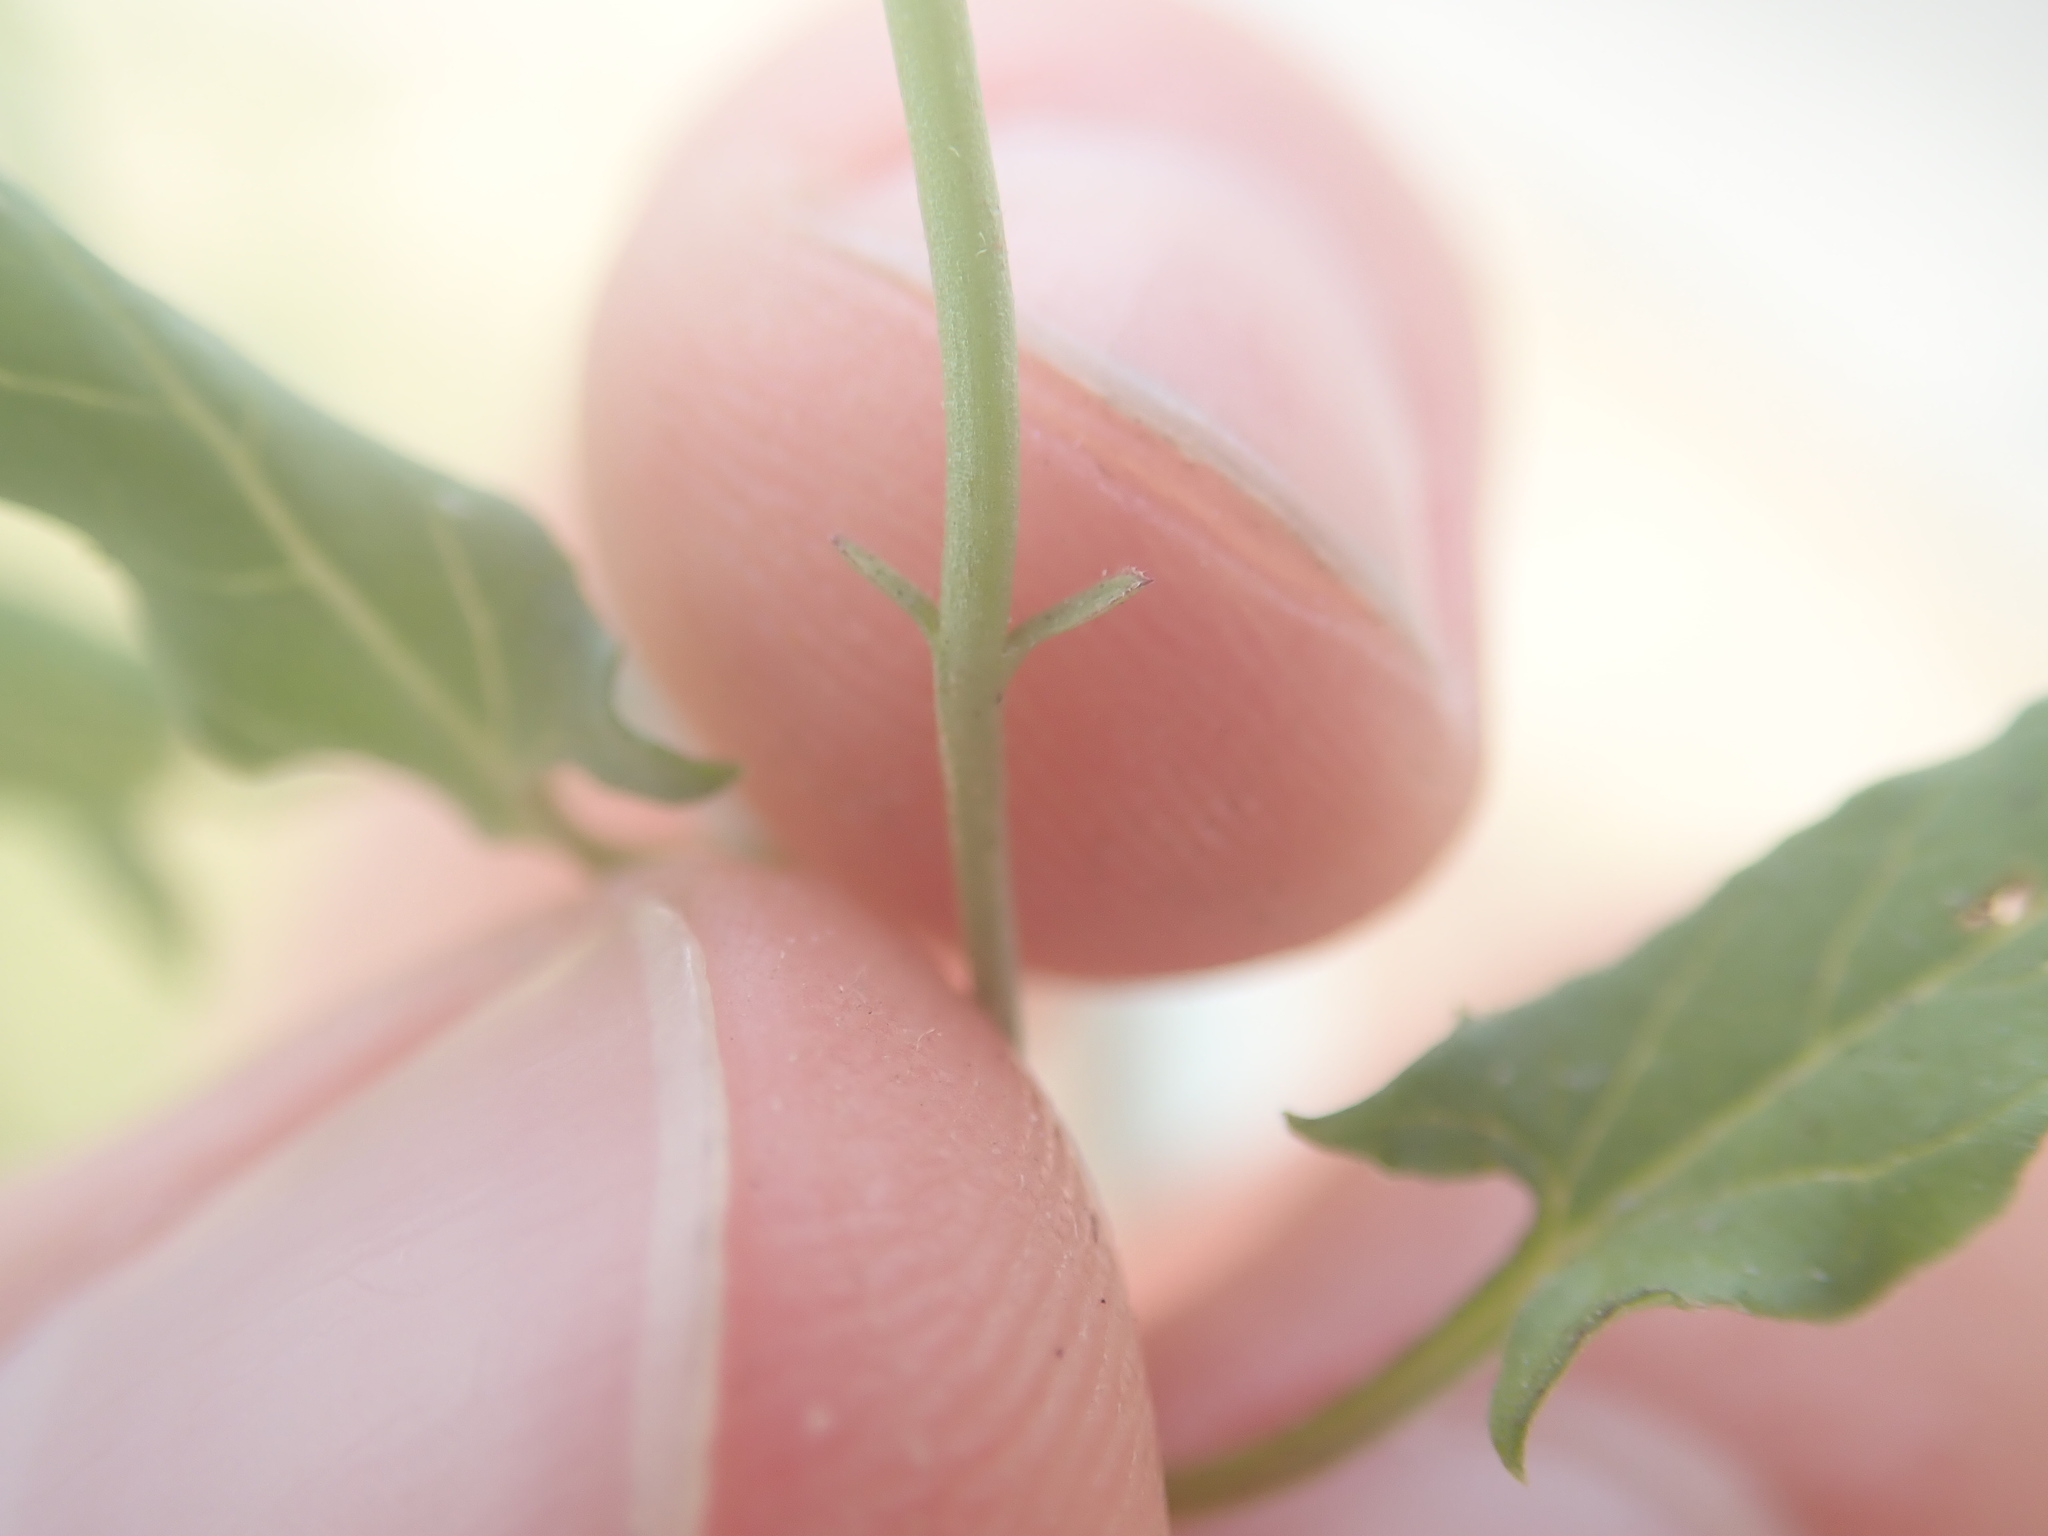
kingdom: Plantae
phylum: Tracheophyta
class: Magnoliopsida
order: Solanales
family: Convolvulaceae
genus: Convolvulus
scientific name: Convolvulus arvensis
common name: Field bindweed
